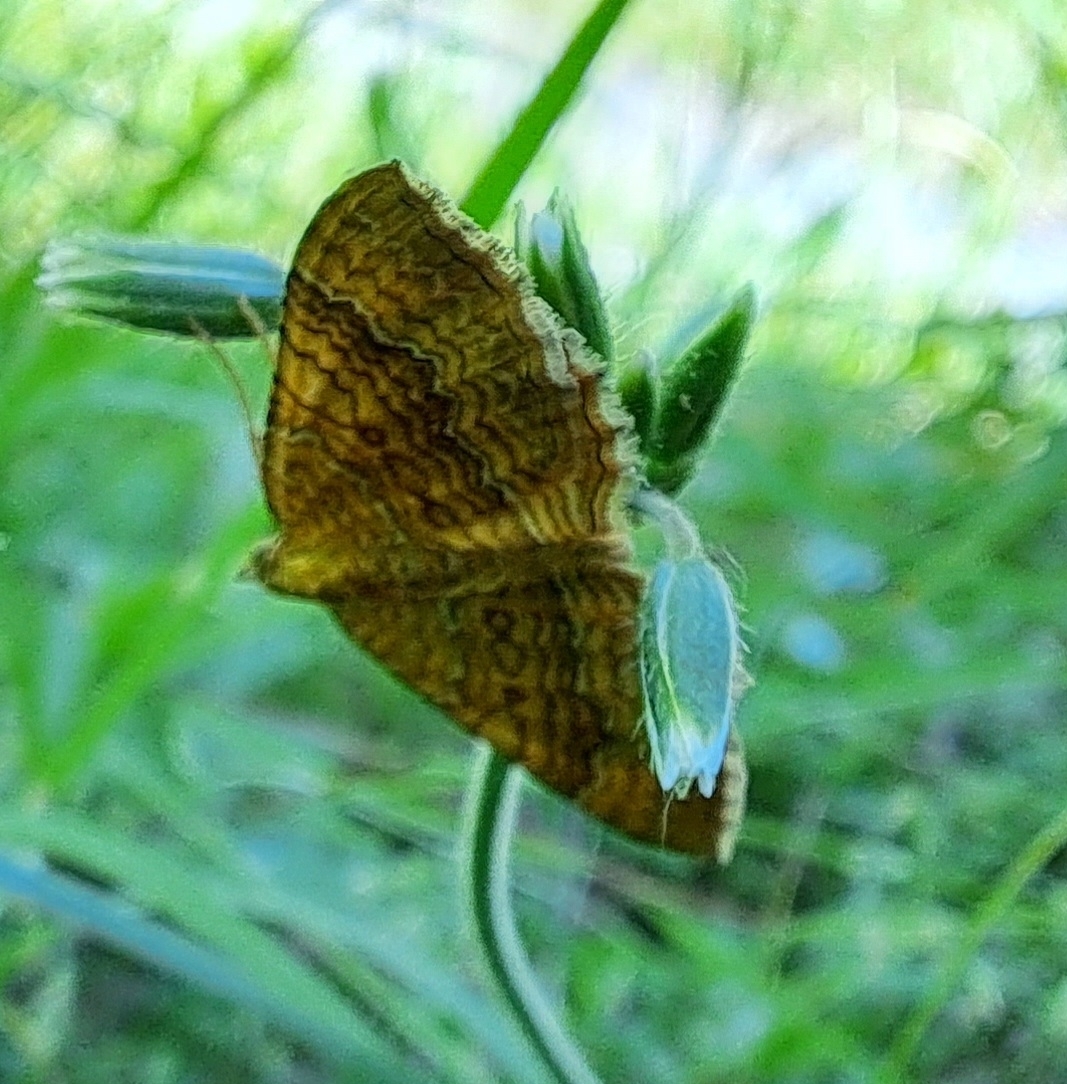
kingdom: Animalia
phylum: Arthropoda
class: Insecta
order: Lepidoptera
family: Geometridae
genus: Camptogramma
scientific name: Camptogramma bilineata
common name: Yellow shell
